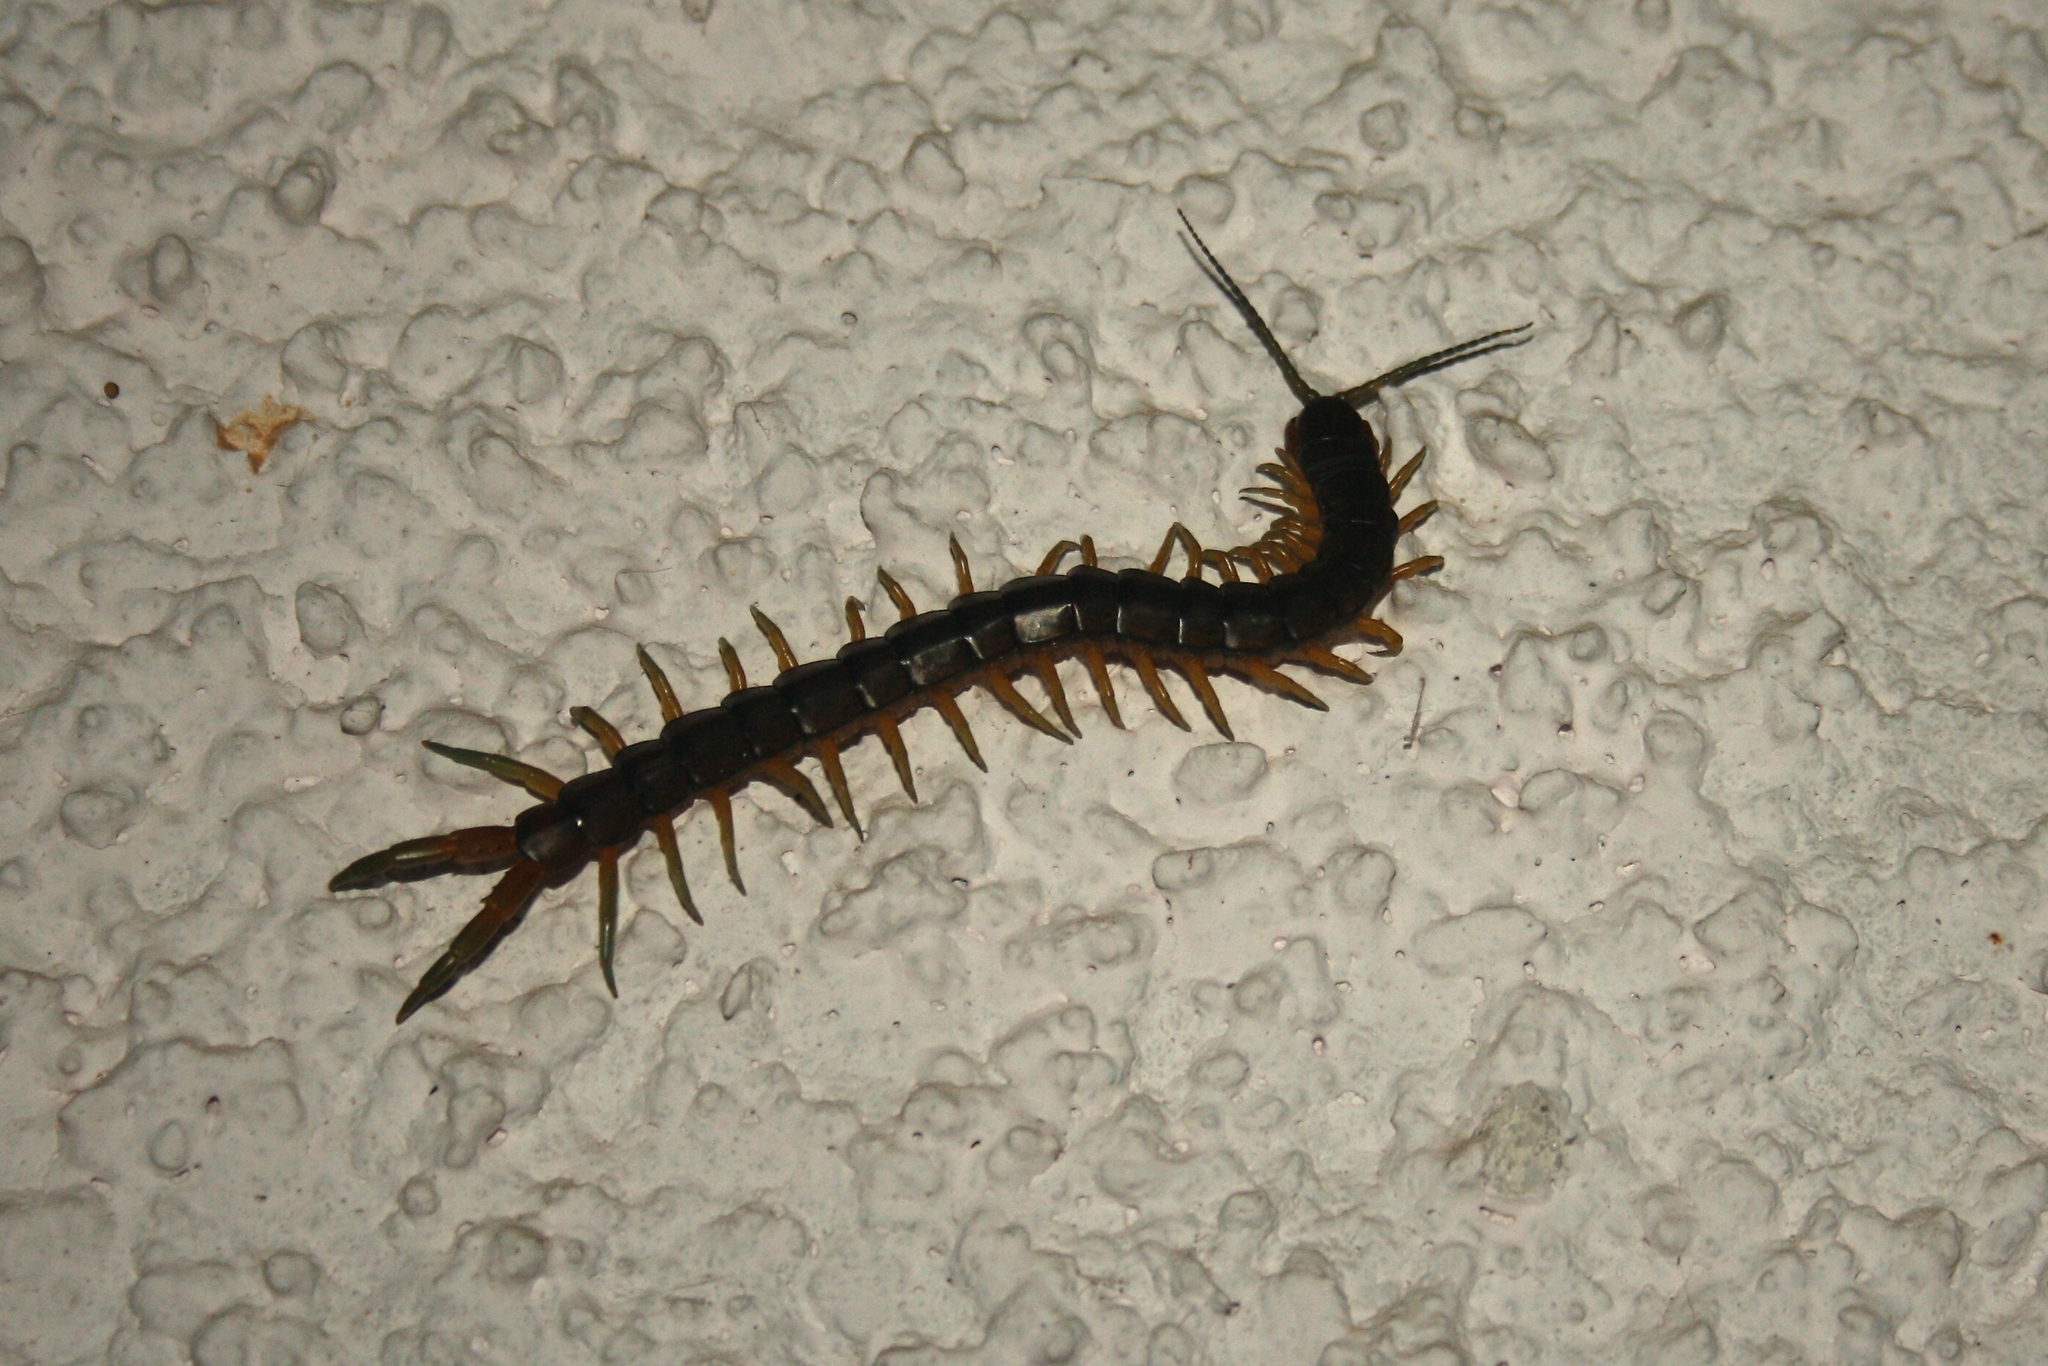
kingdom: Animalia
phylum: Arthropoda
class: Chilopoda
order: Scolopendromorpha
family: Scolopendridae
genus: Scolopendra
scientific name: Scolopendra cingulata
